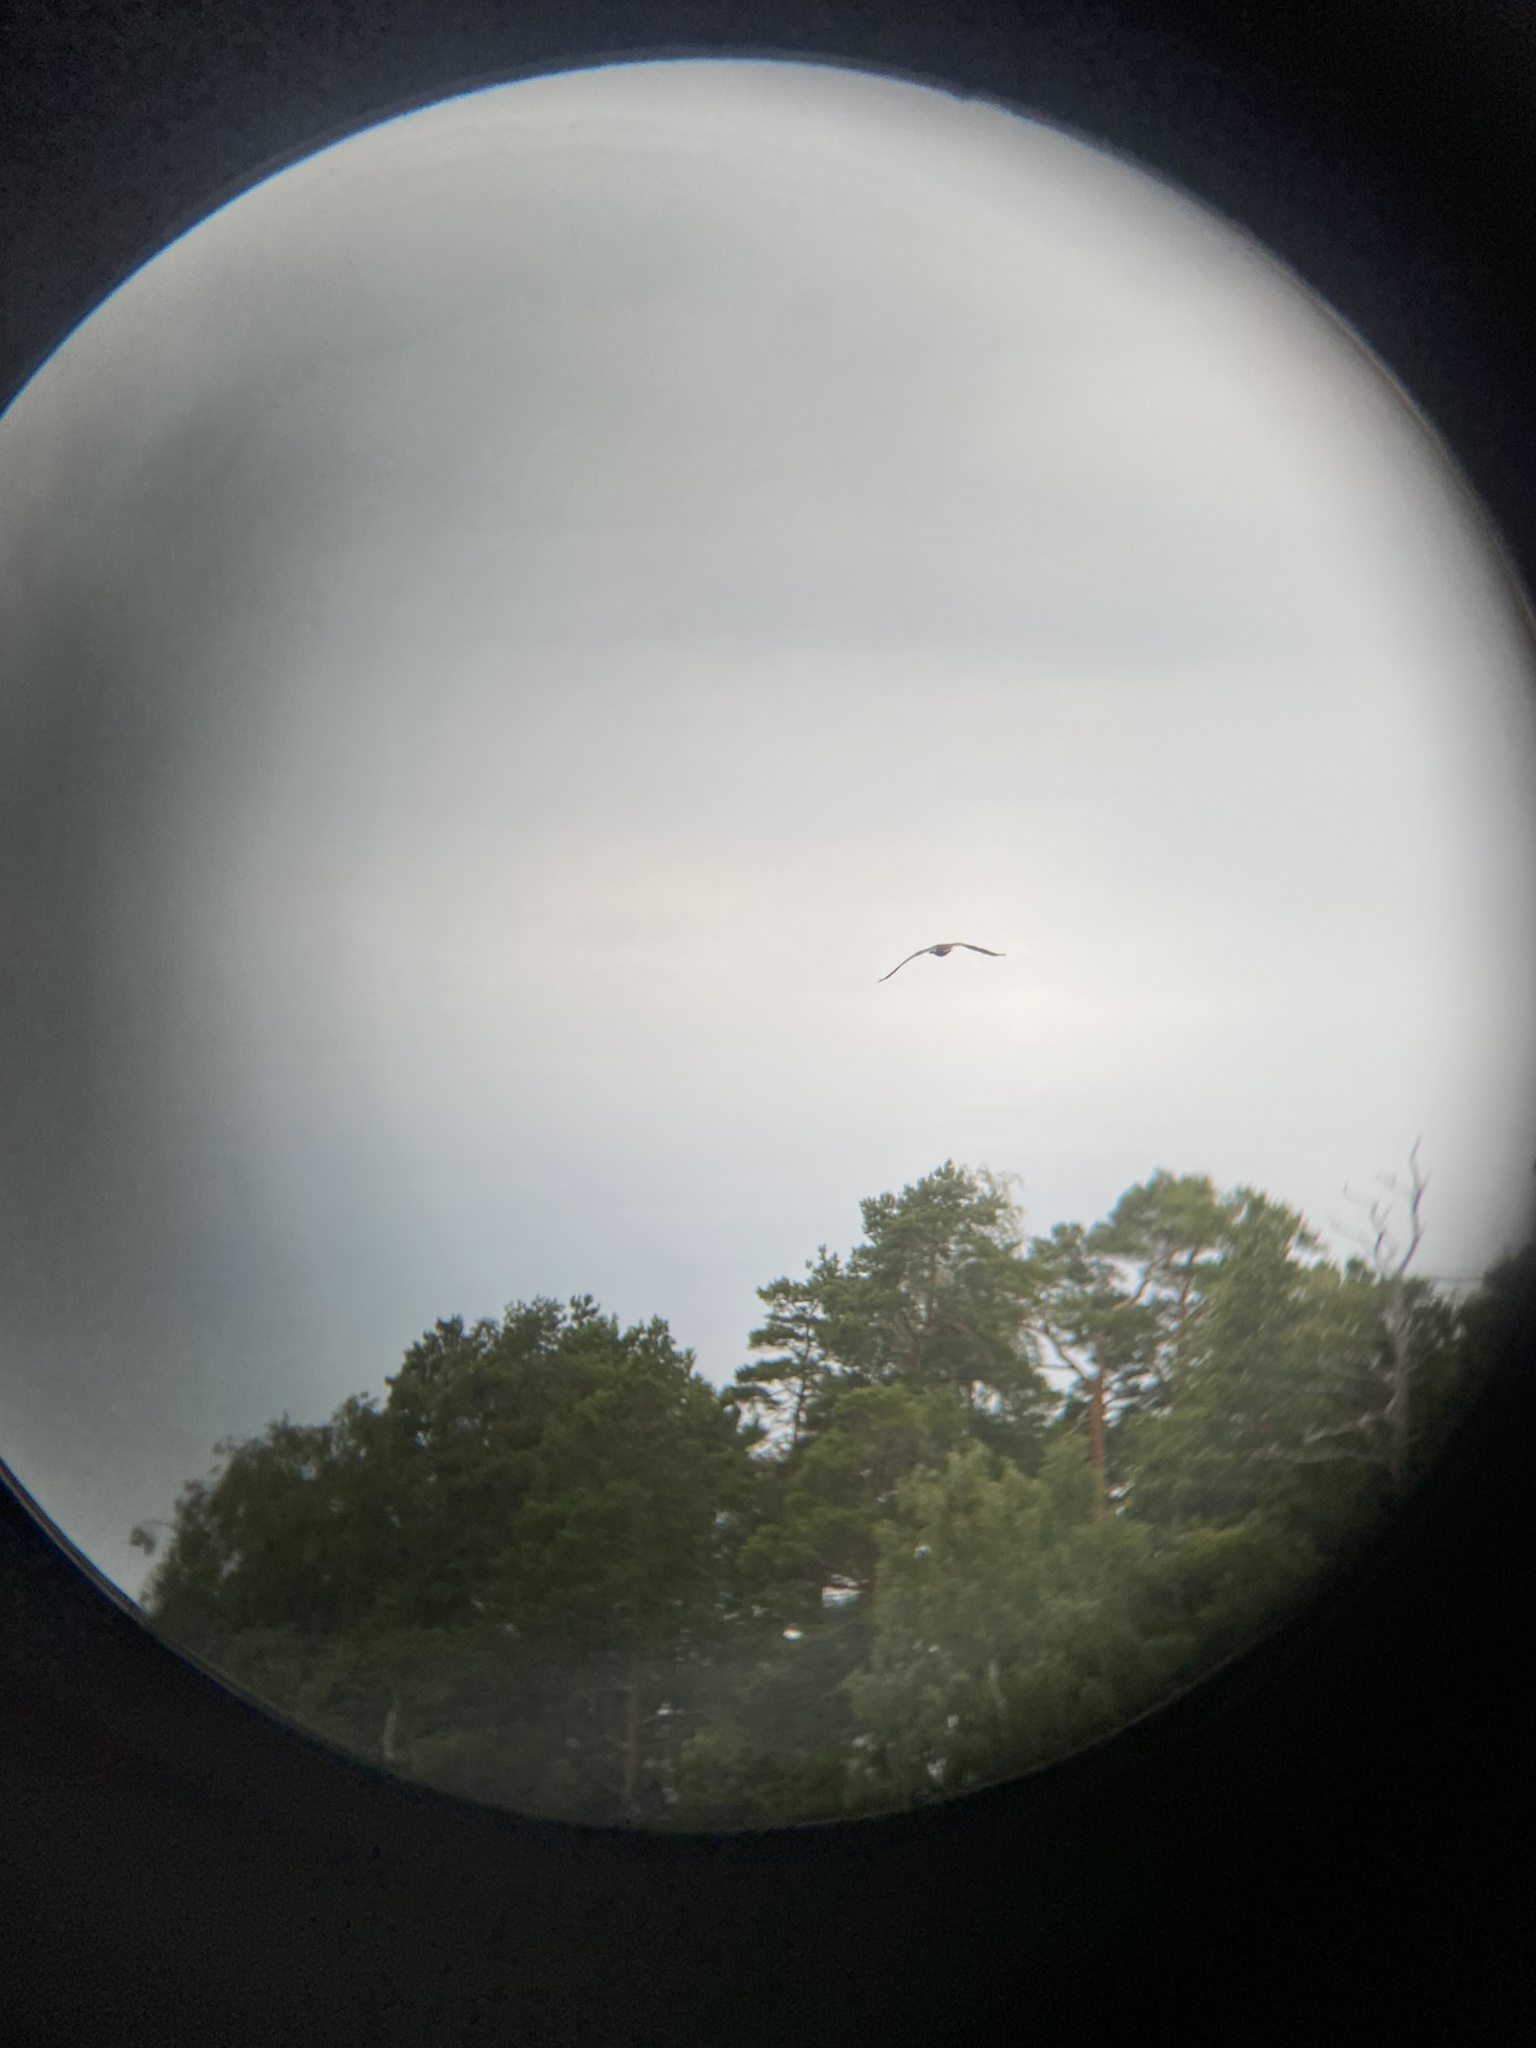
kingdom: Animalia
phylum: Chordata
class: Aves
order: Suliformes
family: Phalacrocoracidae
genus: Phalacrocorax
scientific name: Phalacrocorax carbo
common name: Great cormorant
